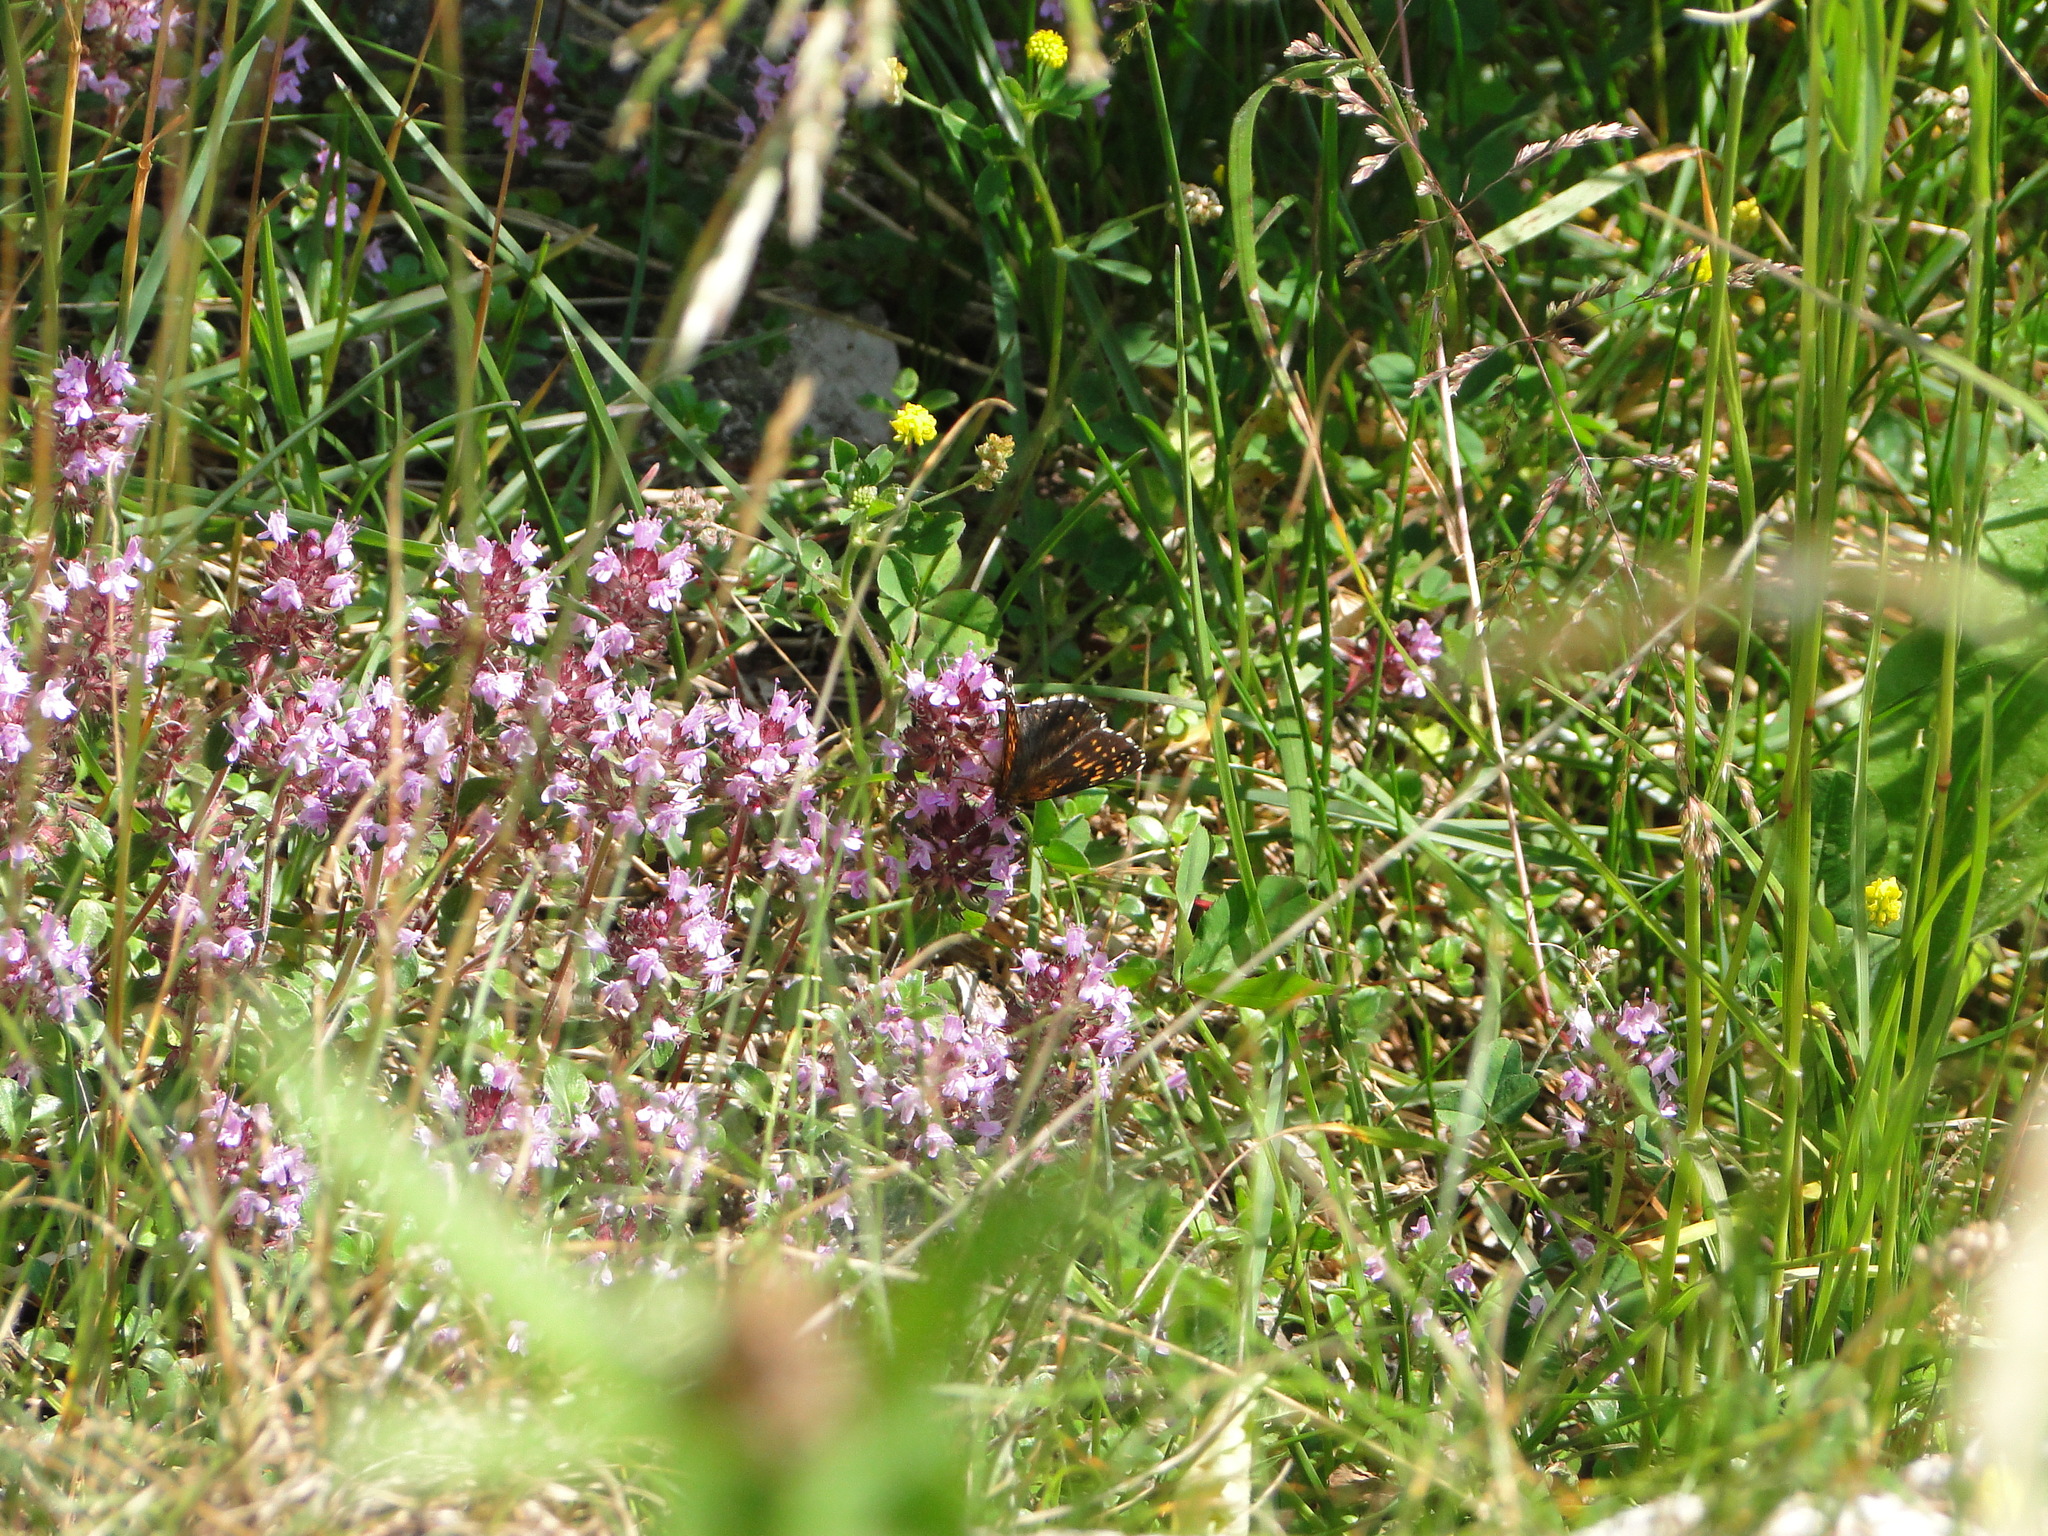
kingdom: Animalia
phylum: Arthropoda
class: Insecta
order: Lepidoptera
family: Nymphalidae
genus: Melitaea
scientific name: Melitaea diamina
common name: False heath fritillary
